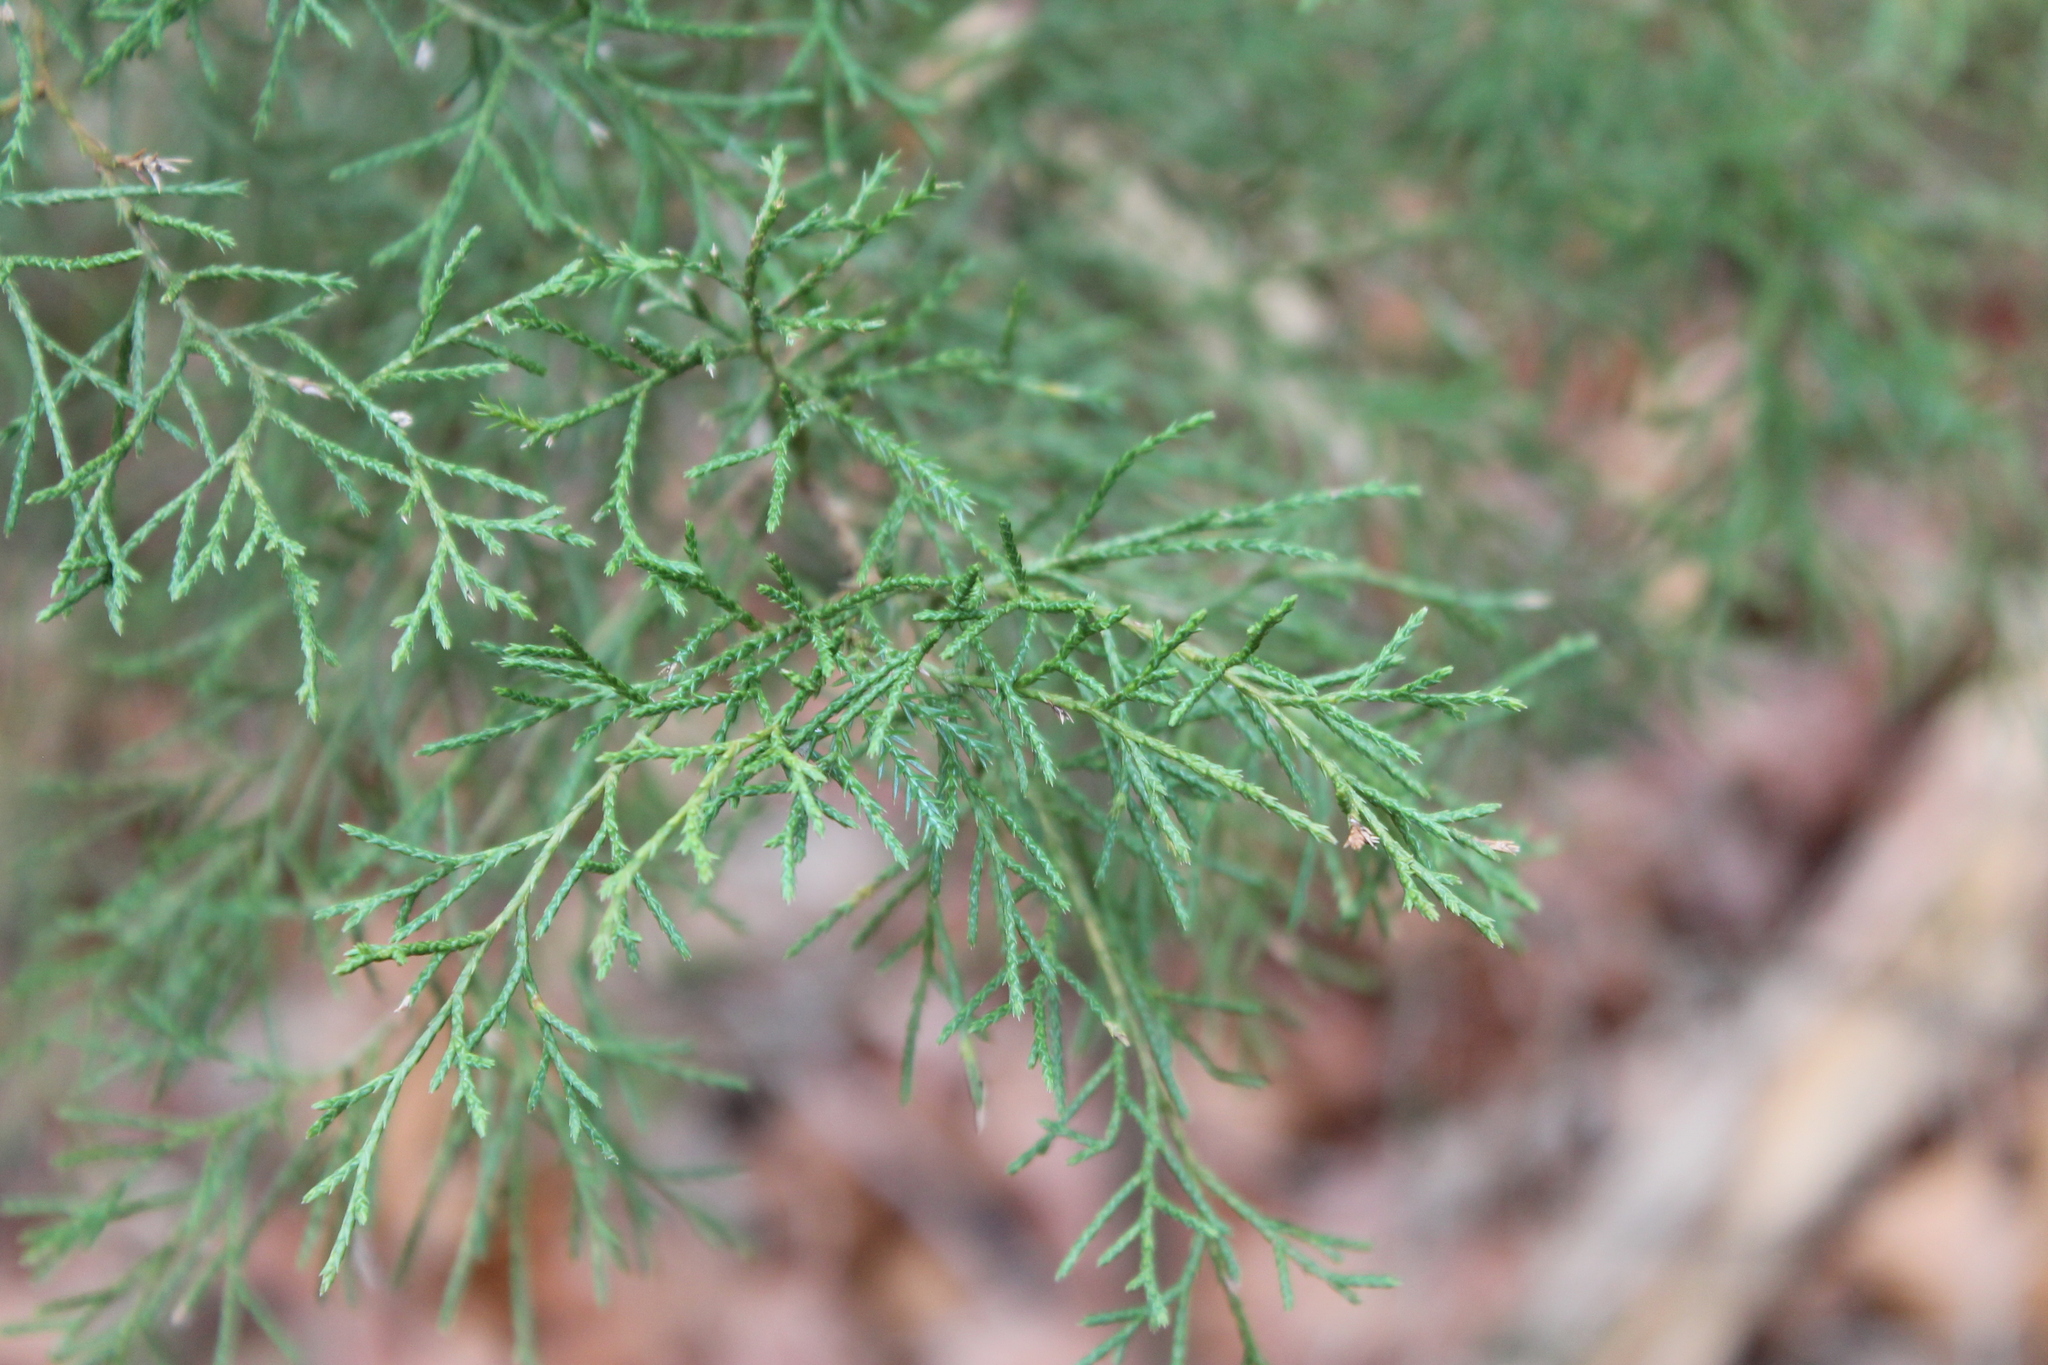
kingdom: Plantae
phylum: Tracheophyta
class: Pinopsida
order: Pinales
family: Cupressaceae
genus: Juniperus
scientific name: Juniperus virginiana
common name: Red juniper
